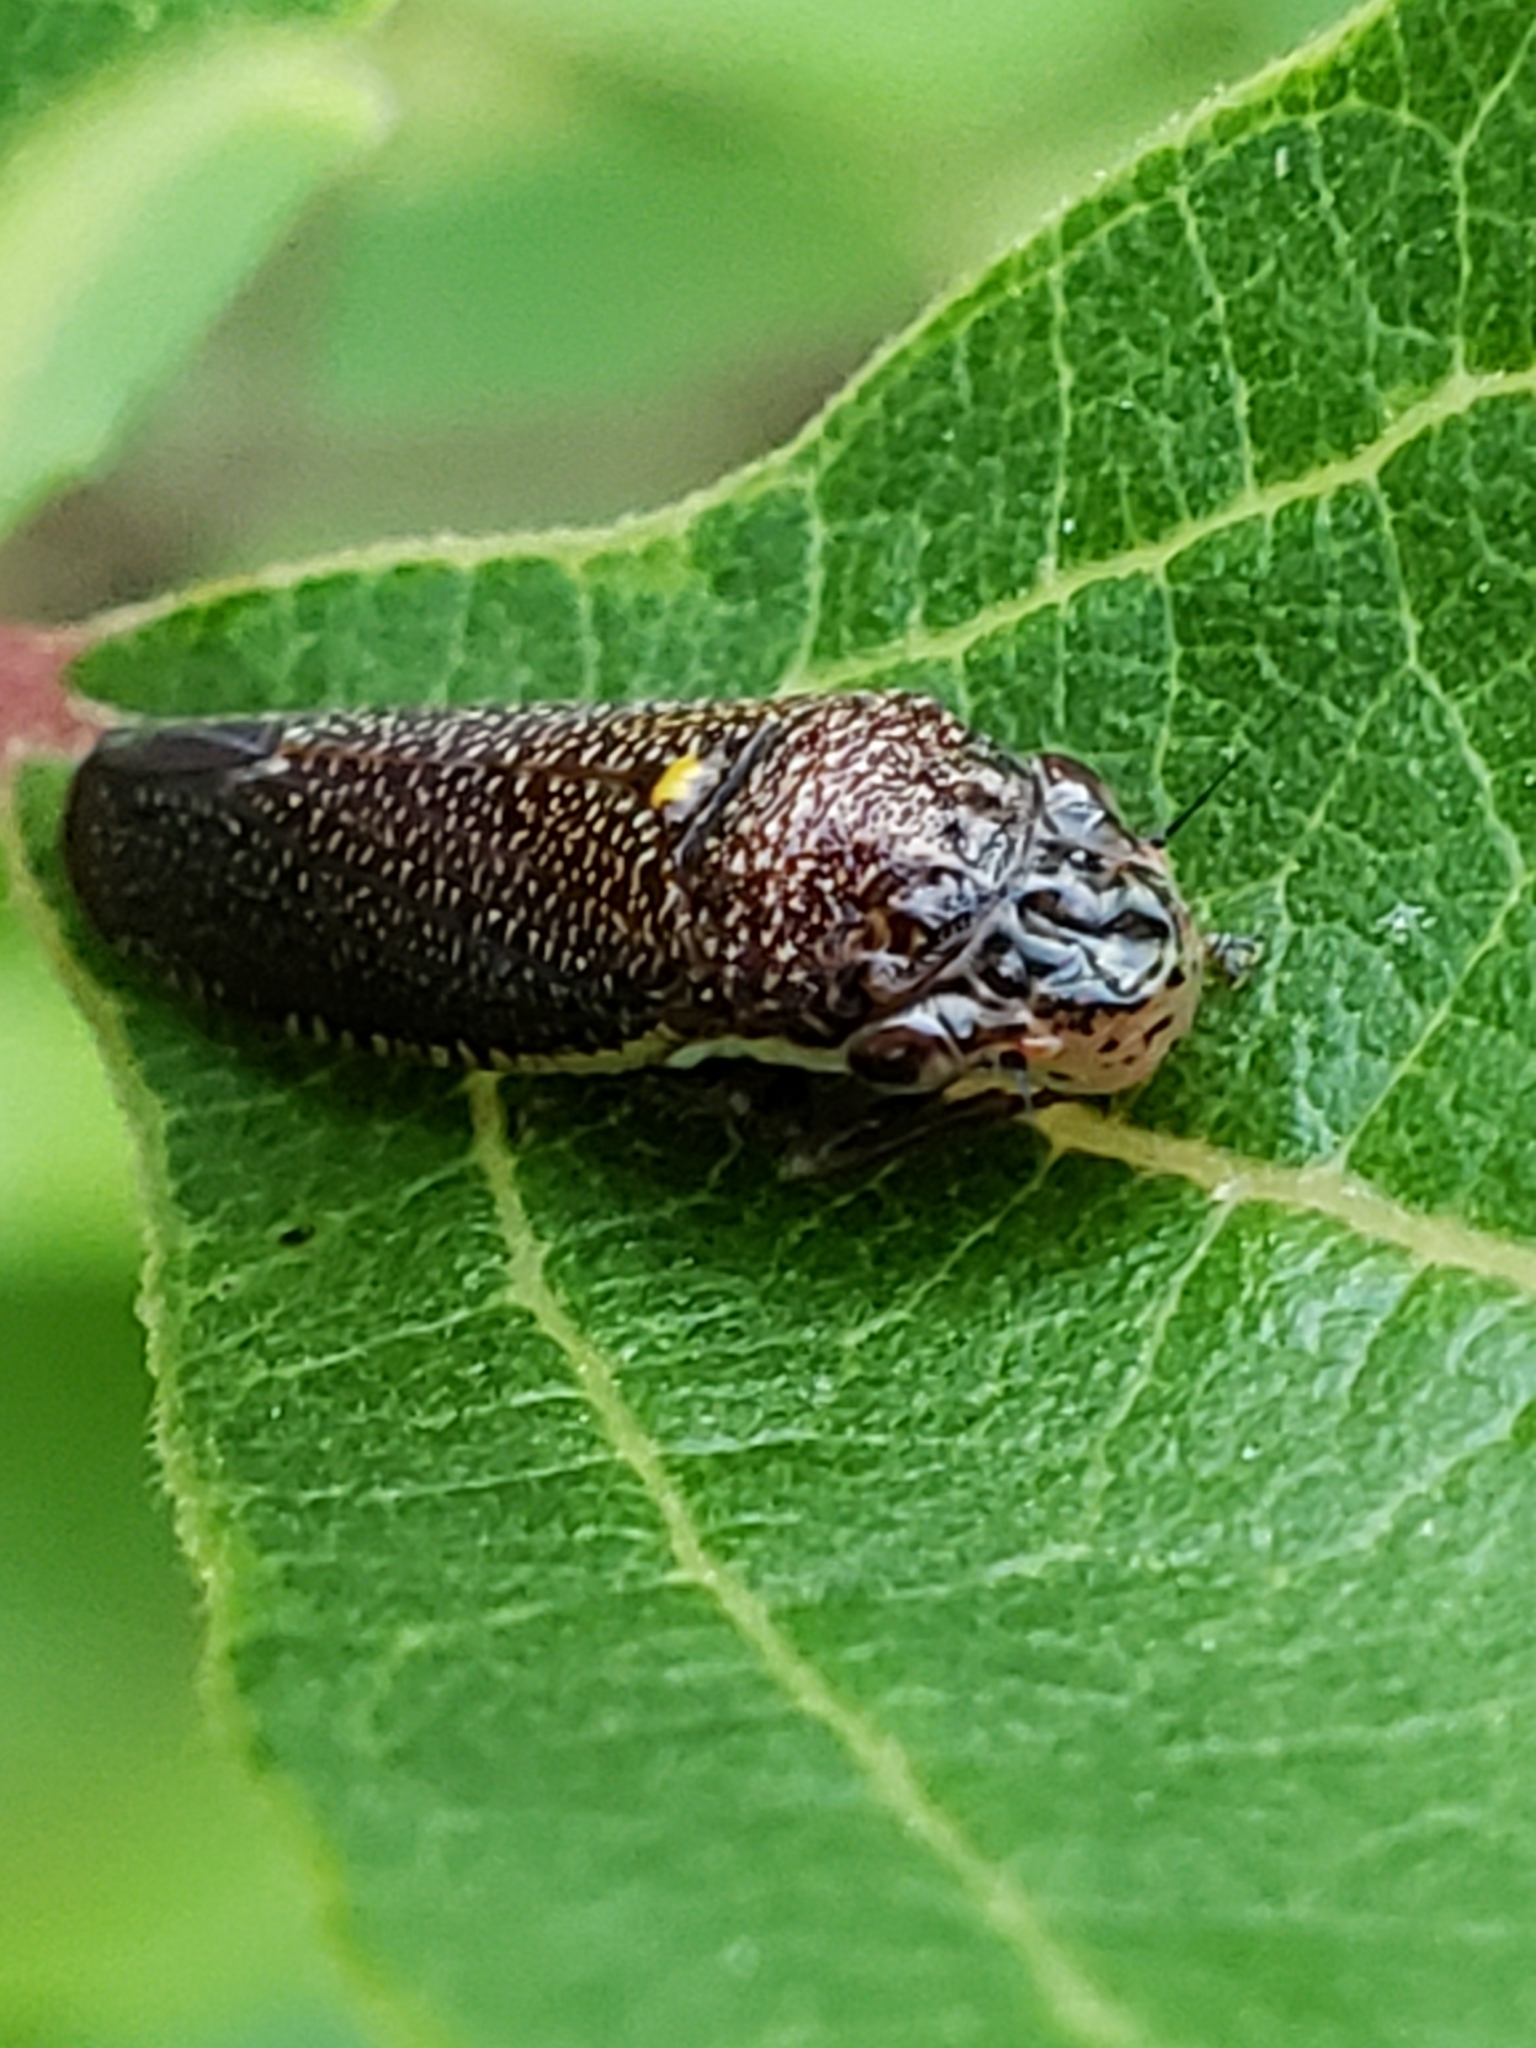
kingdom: Animalia
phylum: Arthropoda
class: Insecta
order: Hemiptera
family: Cicadellidae
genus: Paraulacizes
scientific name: Paraulacizes irrorata
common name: Speckled sharpshooter
